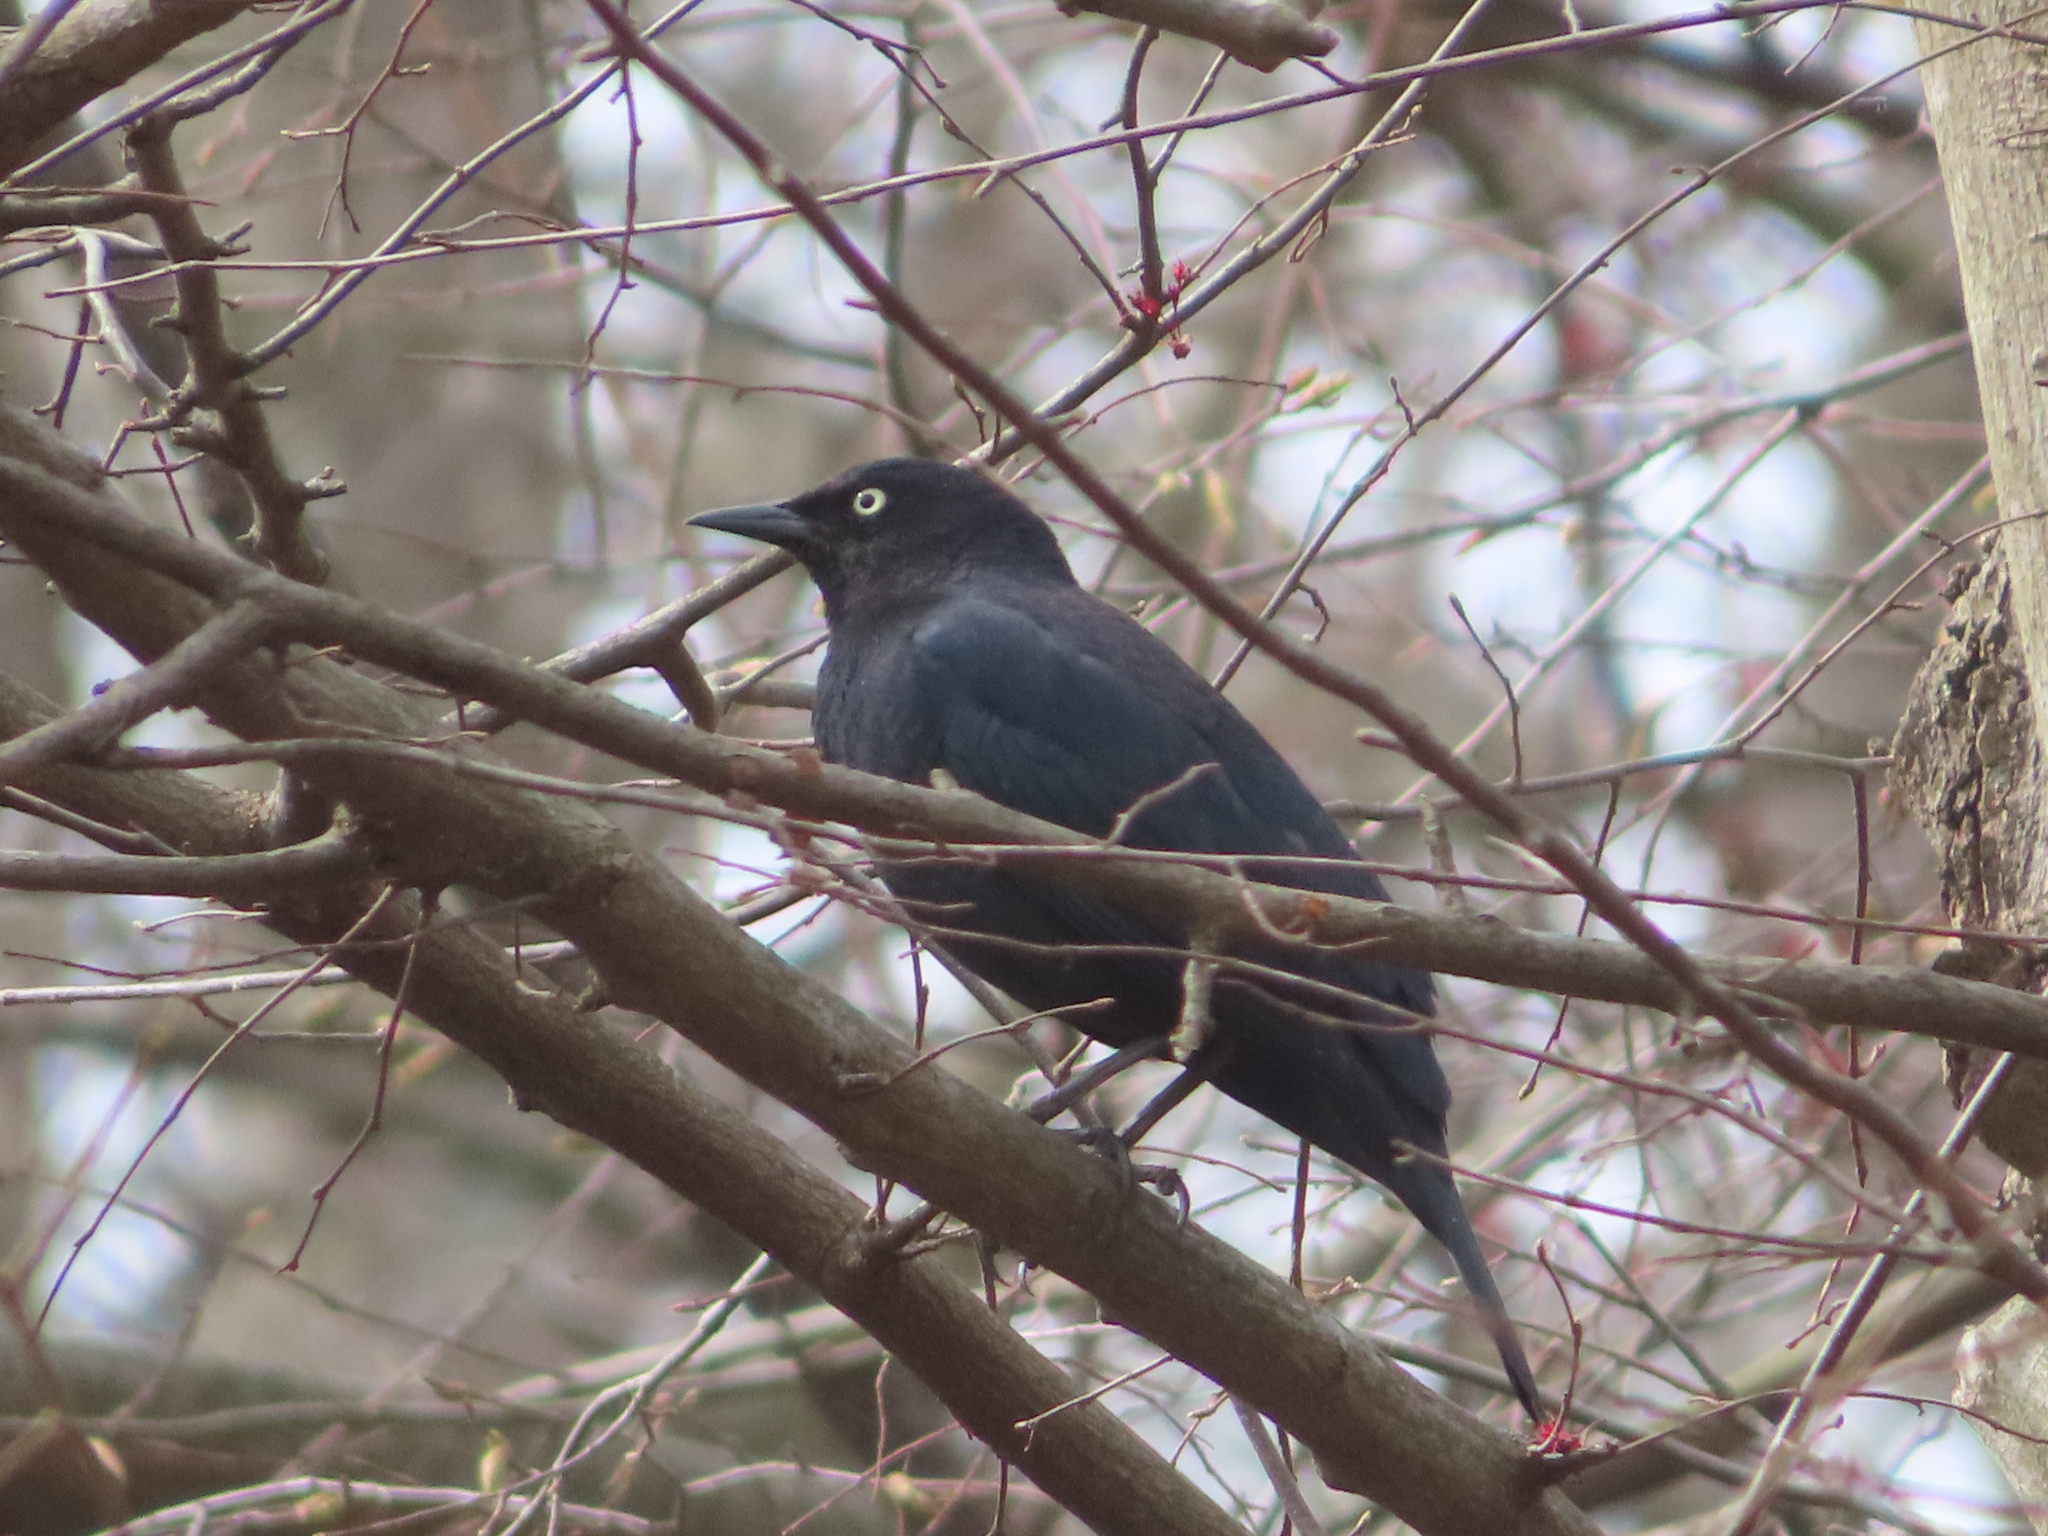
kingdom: Animalia
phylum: Chordata
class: Aves
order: Passeriformes
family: Icteridae
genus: Euphagus
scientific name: Euphagus carolinus
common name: Rusty blackbird
